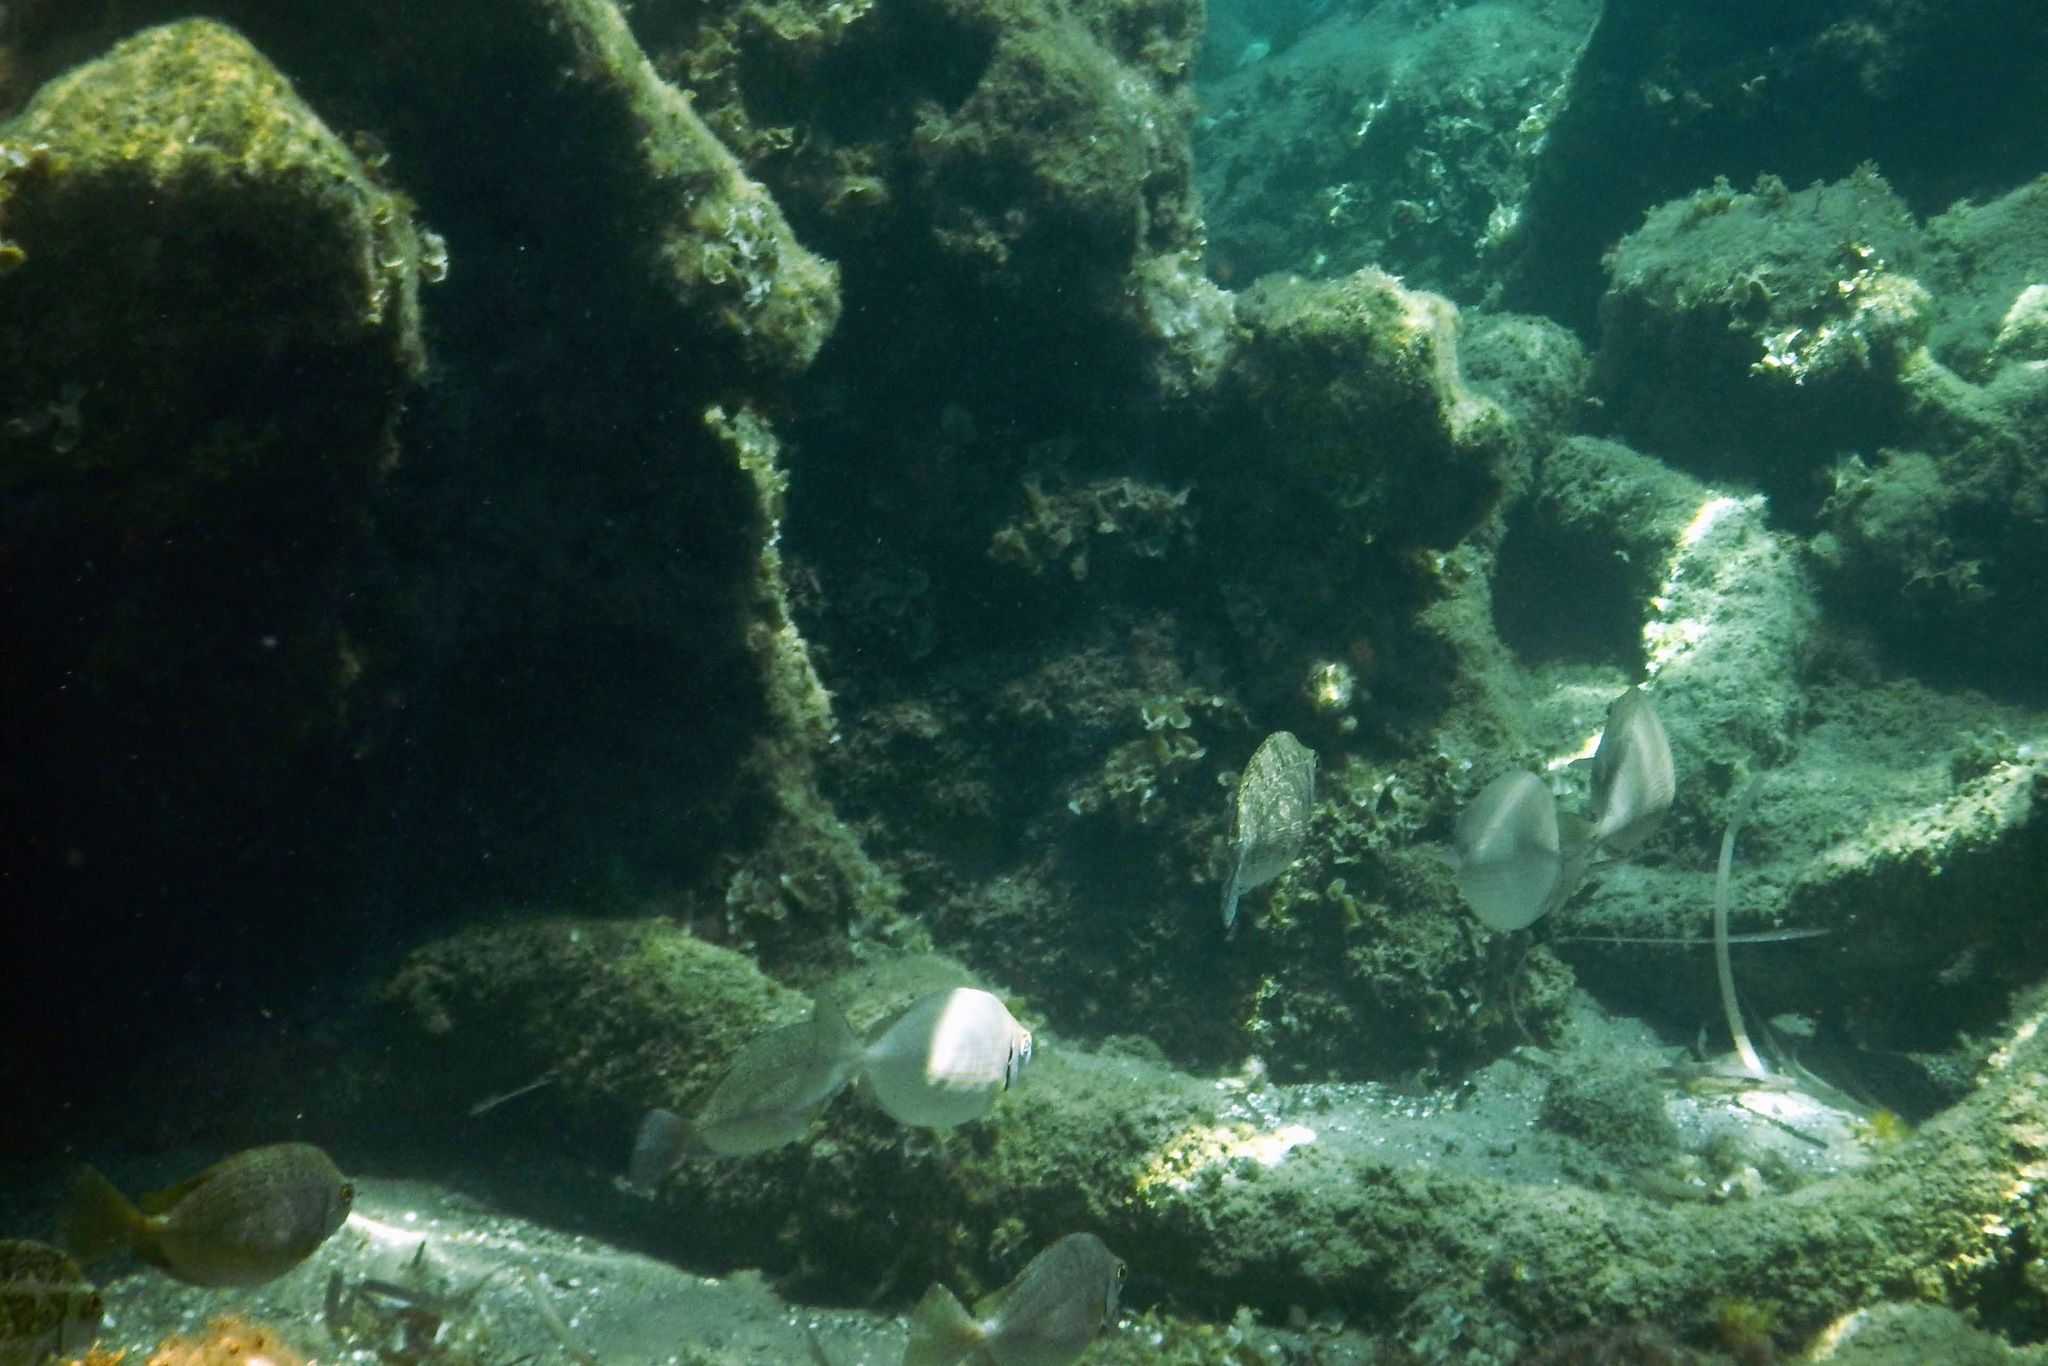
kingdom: Animalia
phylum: Chordata
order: Perciformes
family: Siganidae
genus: Siganus
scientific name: Siganus luridus
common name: Dusky spinefoot
